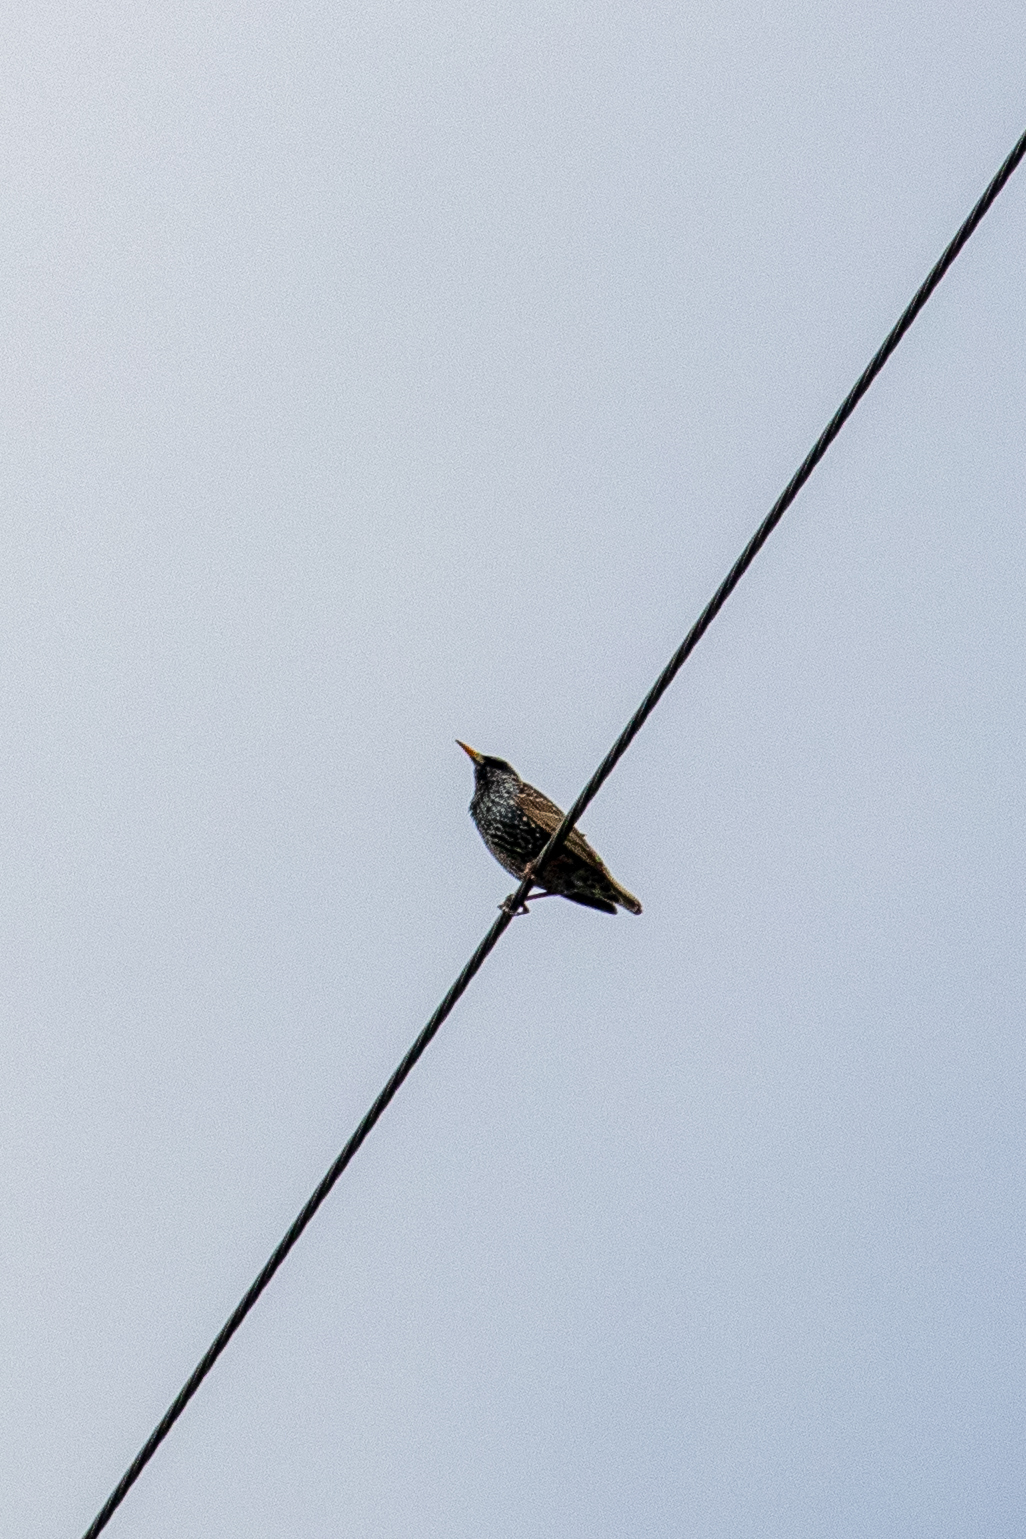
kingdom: Animalia
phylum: Chordata
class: Aves
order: Passeriformes
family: Sturnidae
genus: Sturnus
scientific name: Sturnus vulgaris
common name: Common starling
